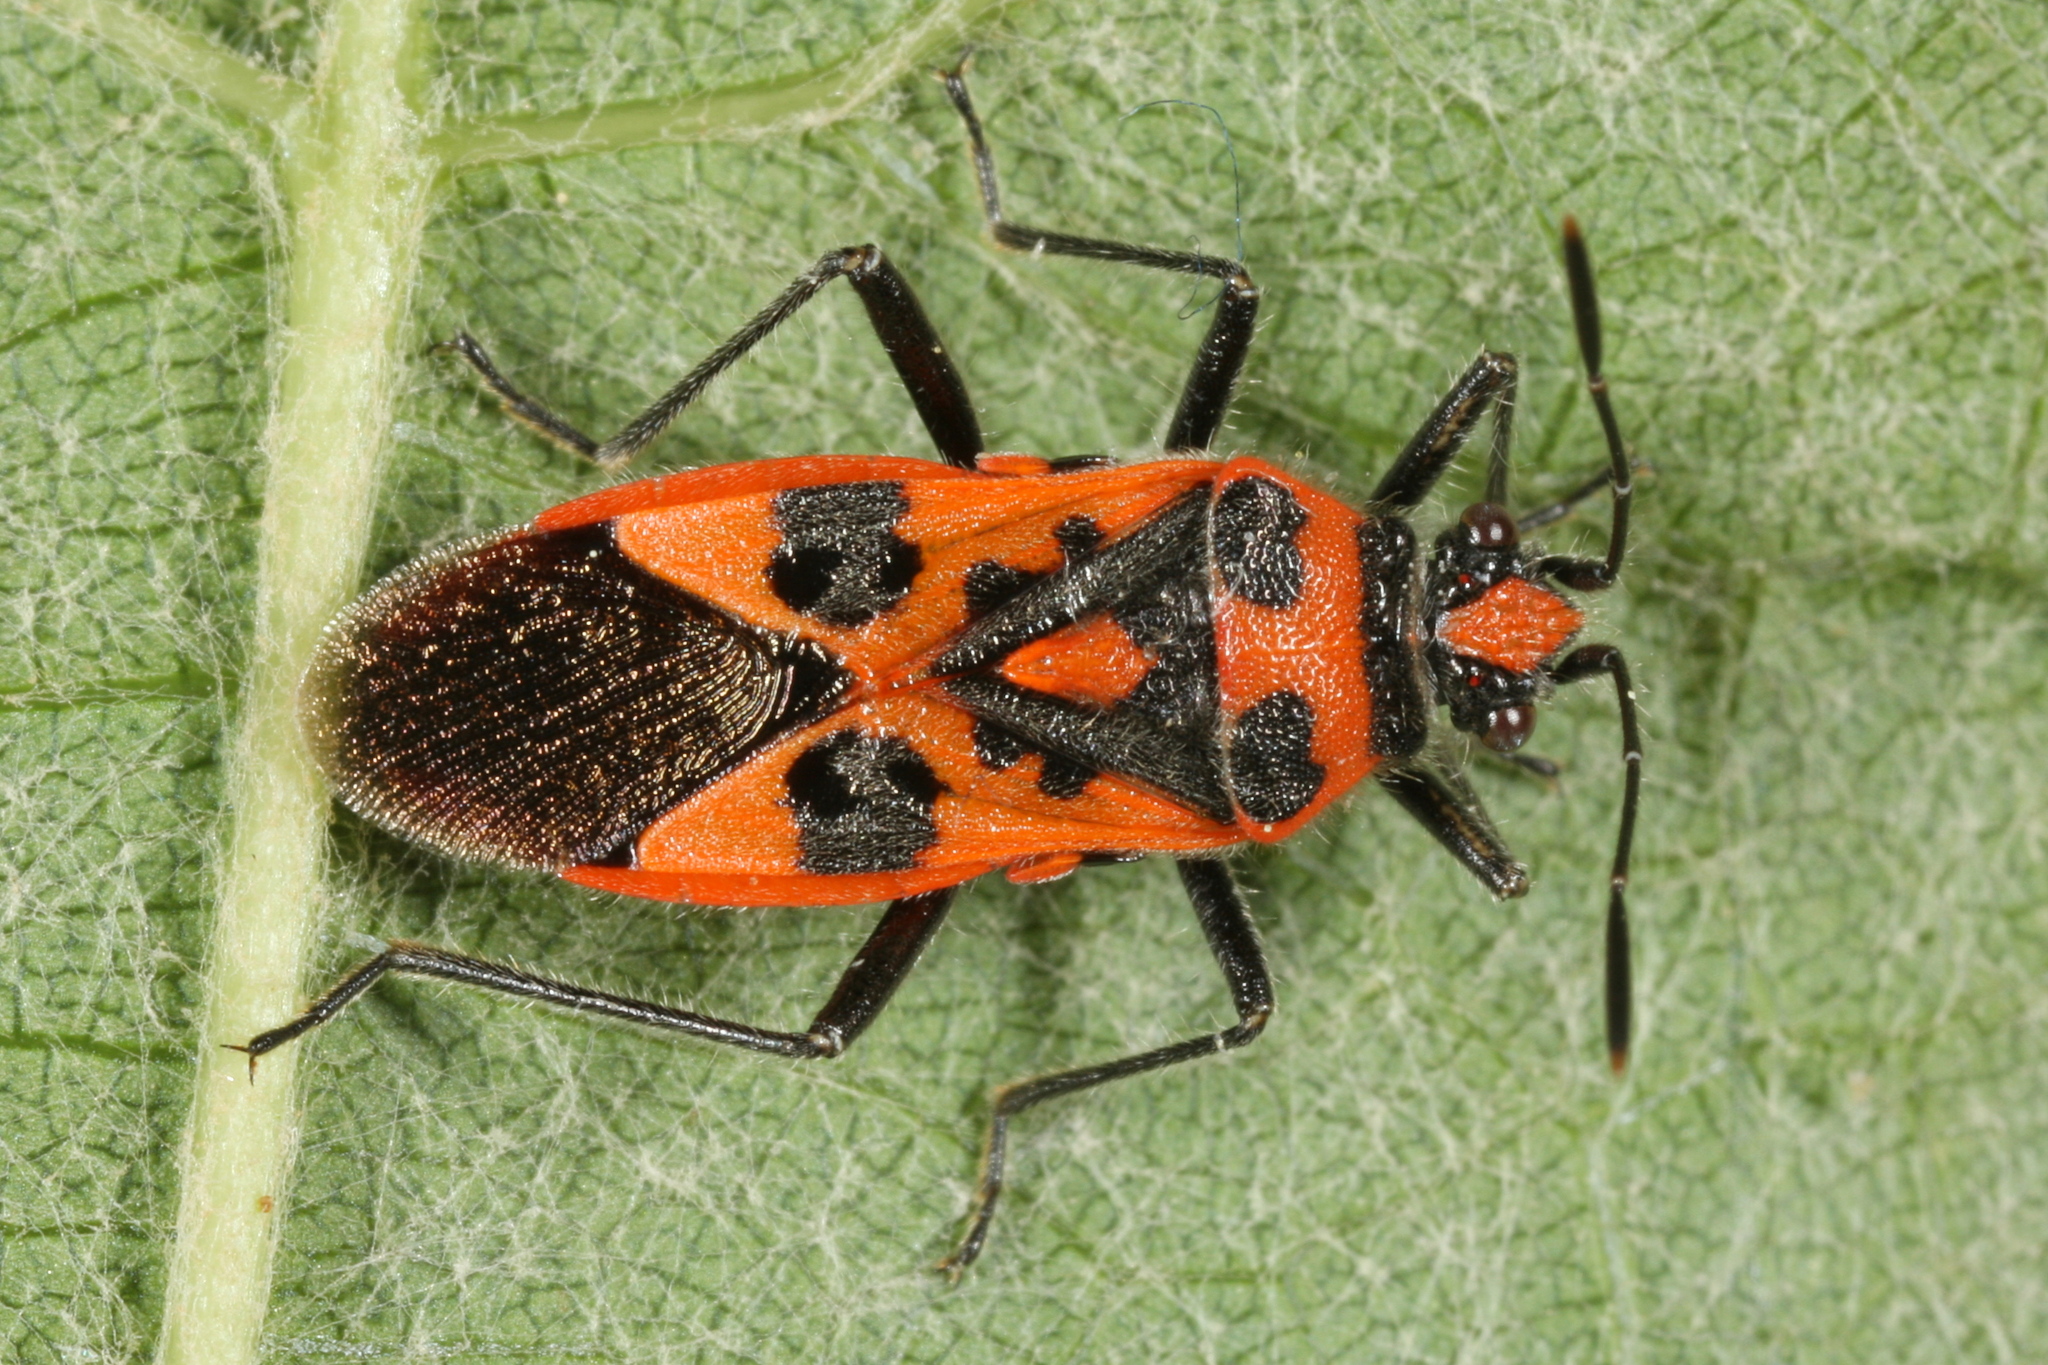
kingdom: Animalia
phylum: Arthropoda
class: Insecta
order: Hemiptera
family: Rhopalidae
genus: Corizus
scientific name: Corizus hyoscyami
